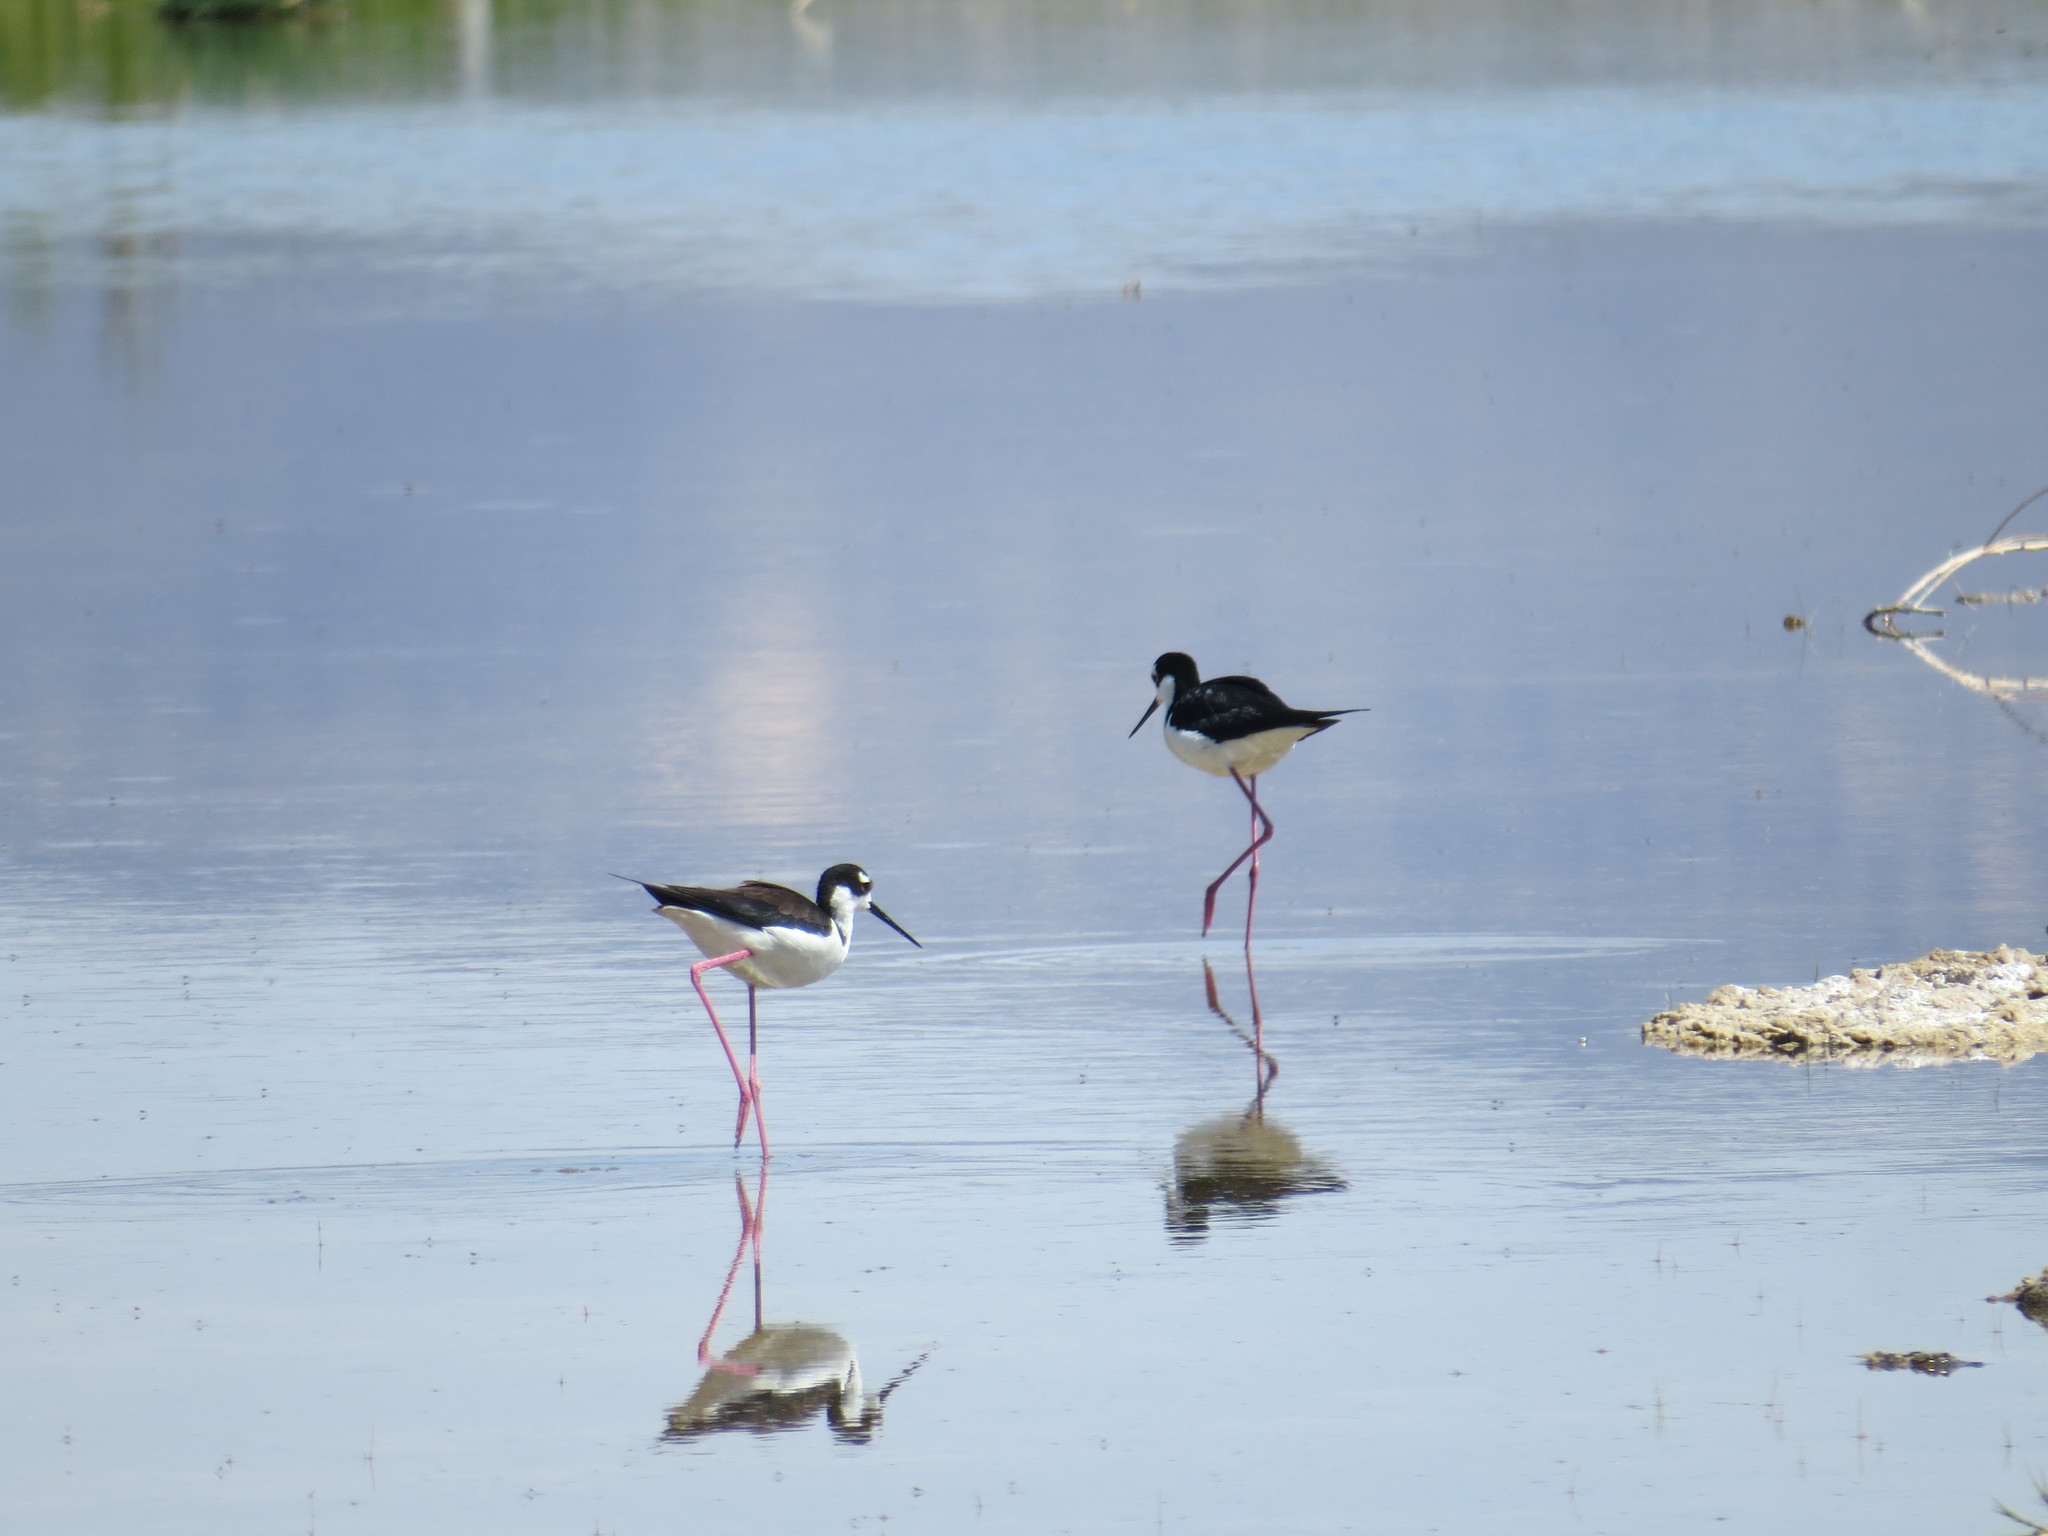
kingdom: Animalia
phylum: Chordata
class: Aves
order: Charadriiformes
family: Recurvirostridae
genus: Himantopus
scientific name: Himantopus mexicanus
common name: Black-necked stilt
